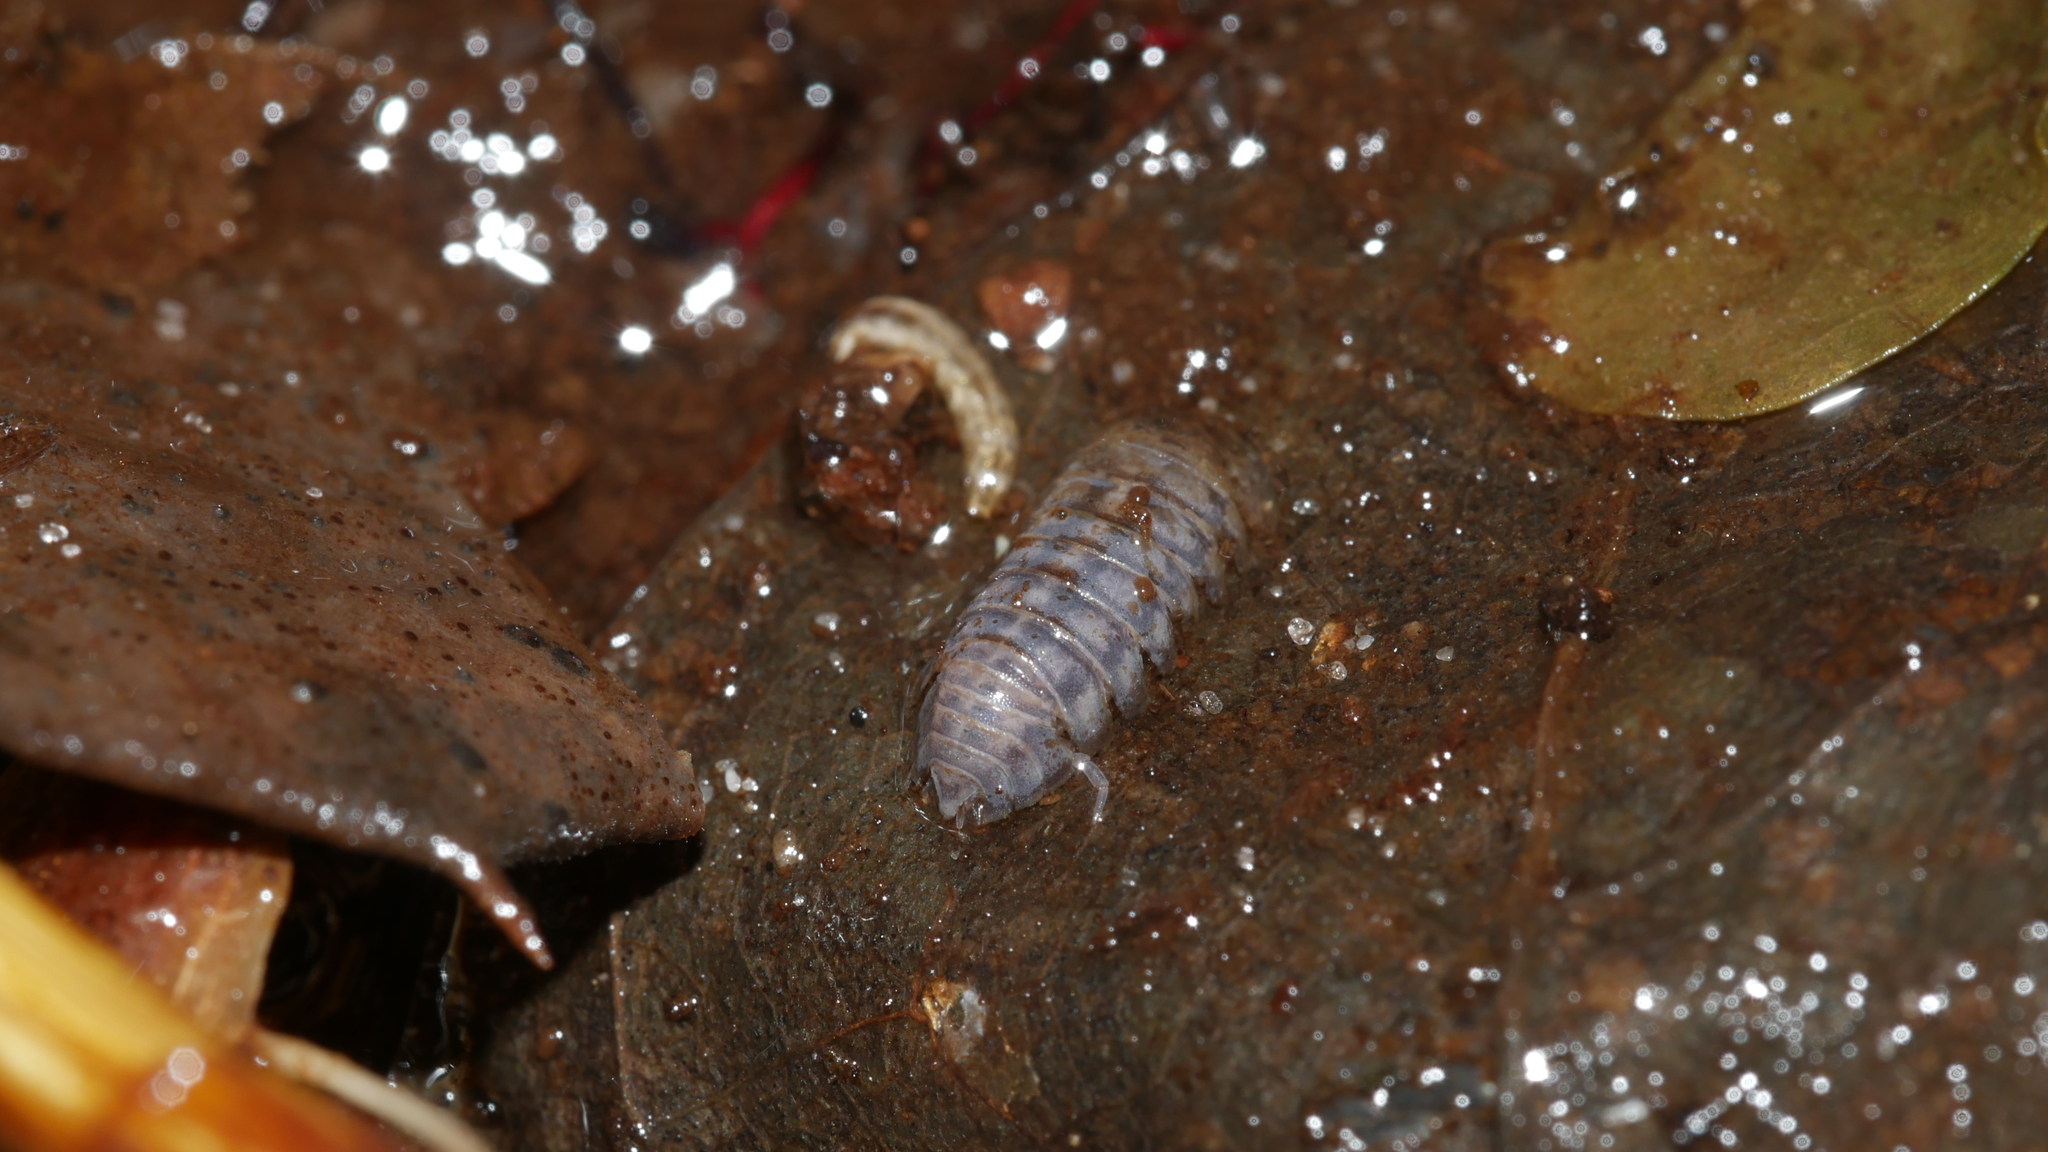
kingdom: Animalia
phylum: Arthropoda
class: Malacostraca
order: Isopoda
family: Armadillidiidae
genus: Armadillidium
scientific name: Armadillidium nasatum
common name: Isopod
